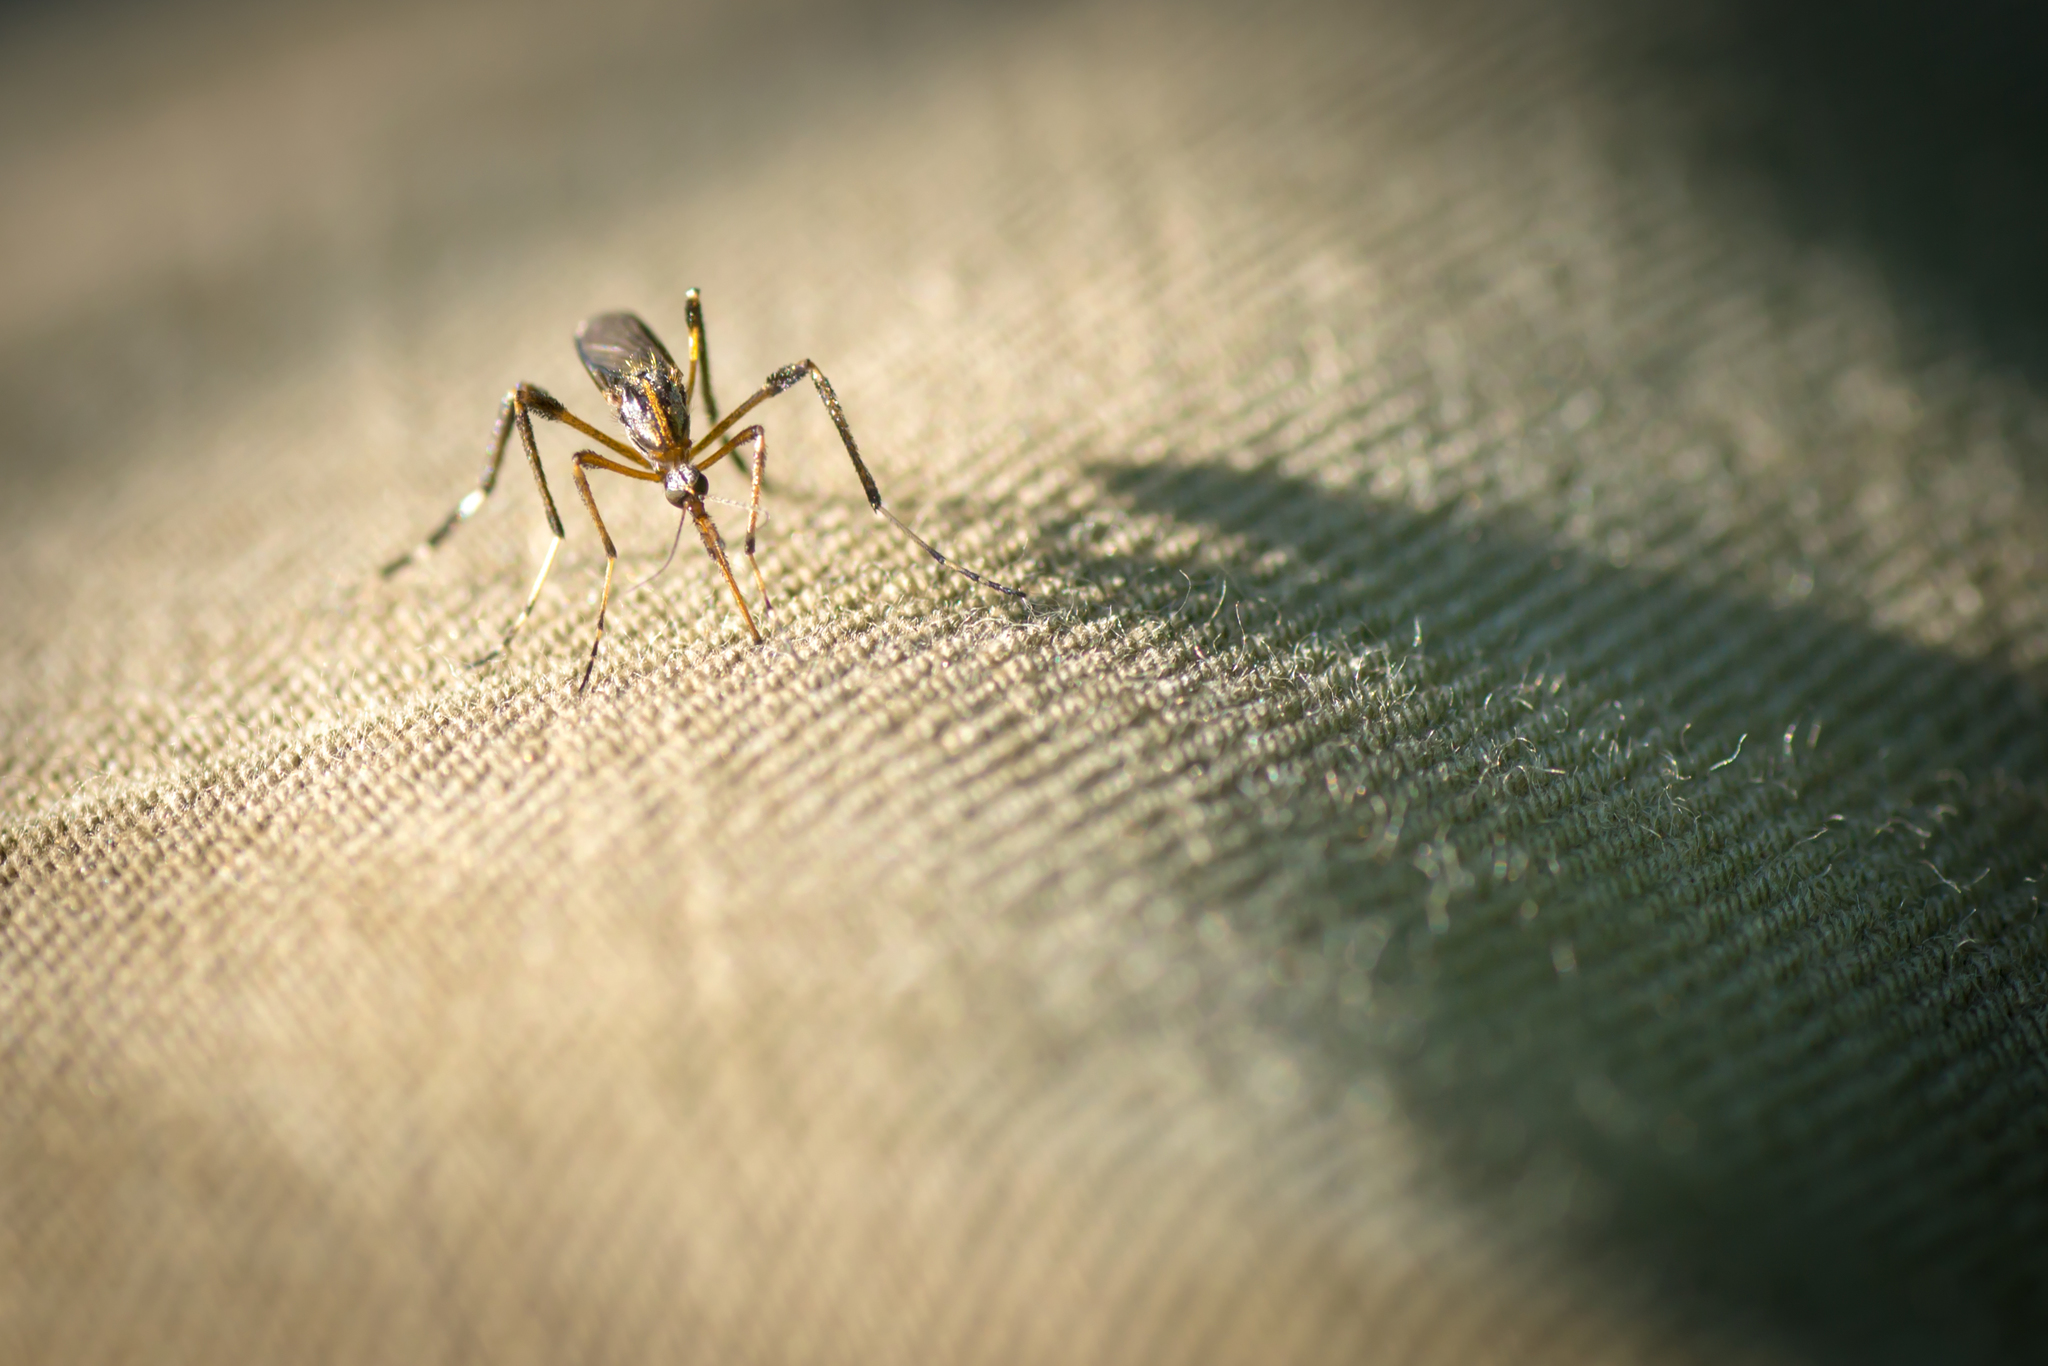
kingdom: Animalia
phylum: Arthropoda
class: Insecta
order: Diptera
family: Culicidae
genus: Psorophora
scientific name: Psorophora ciliata
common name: Gallinipper
